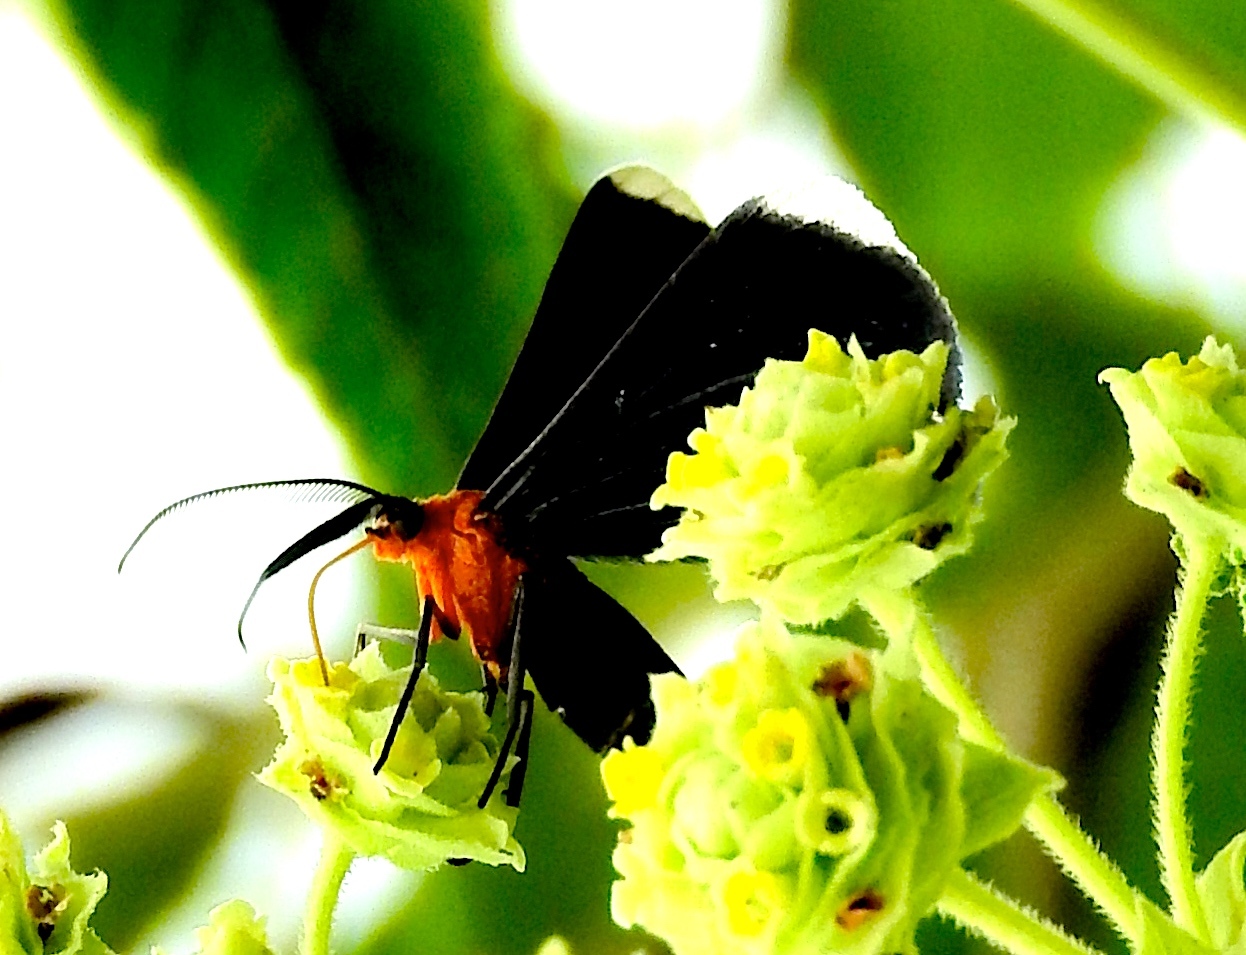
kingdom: Animalia
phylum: Arthropoda
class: Insecta
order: Lepidoptera
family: Geometridae
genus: Melanchroia
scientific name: Melanchroia chephise
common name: White-tipped black
